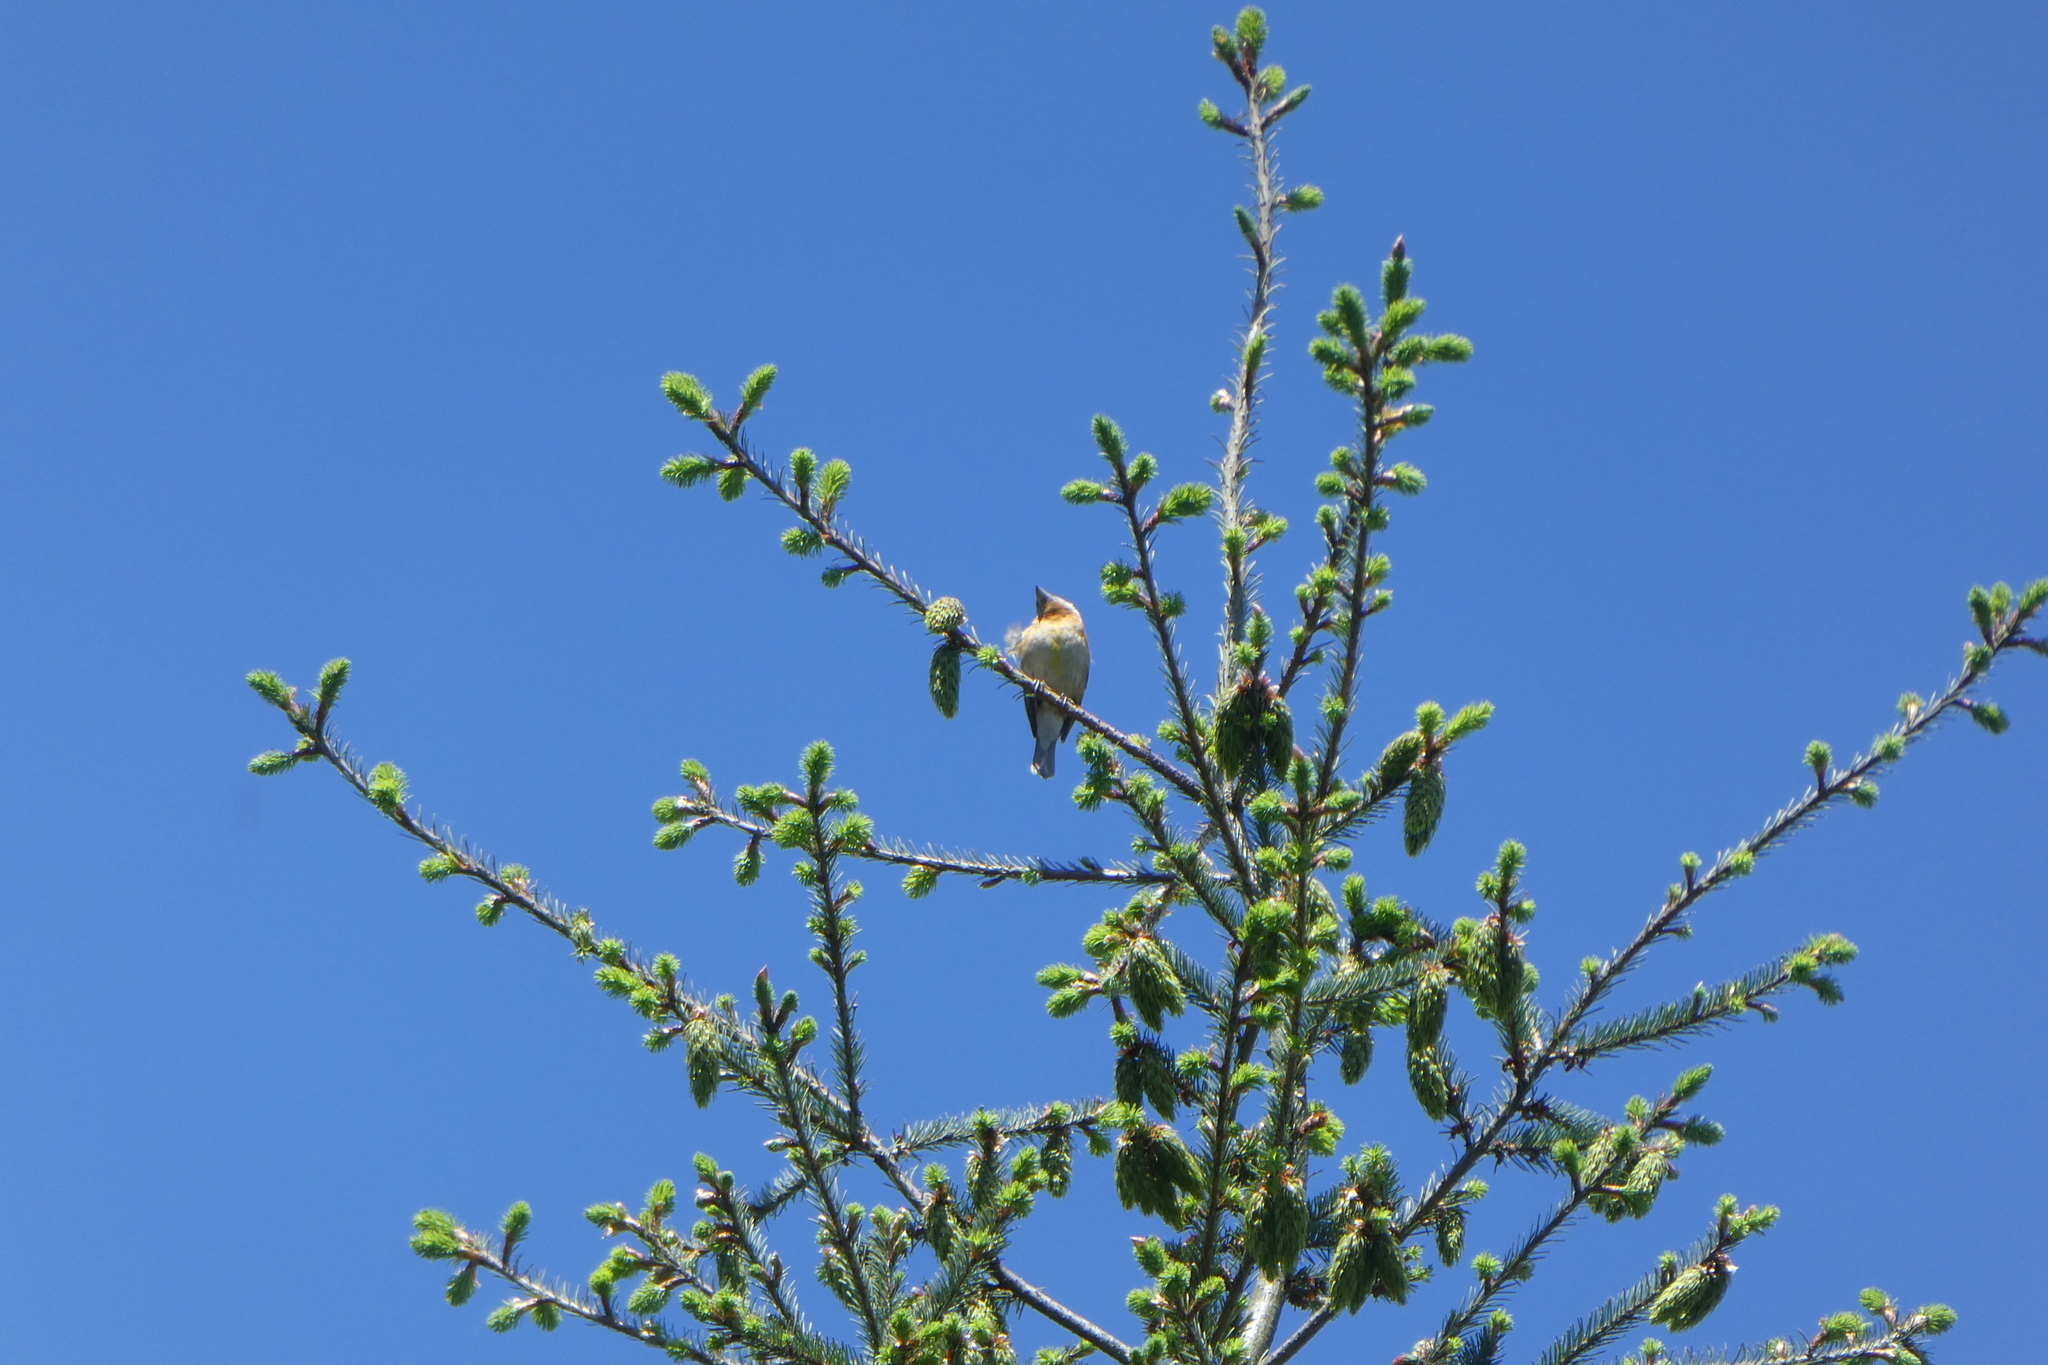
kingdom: Animalia
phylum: Chordata
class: Aves
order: Passeriformes
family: Cardinalidae
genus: Pheucticus
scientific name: Pheucticus melanocephalus
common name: Black-headed grosbeak
